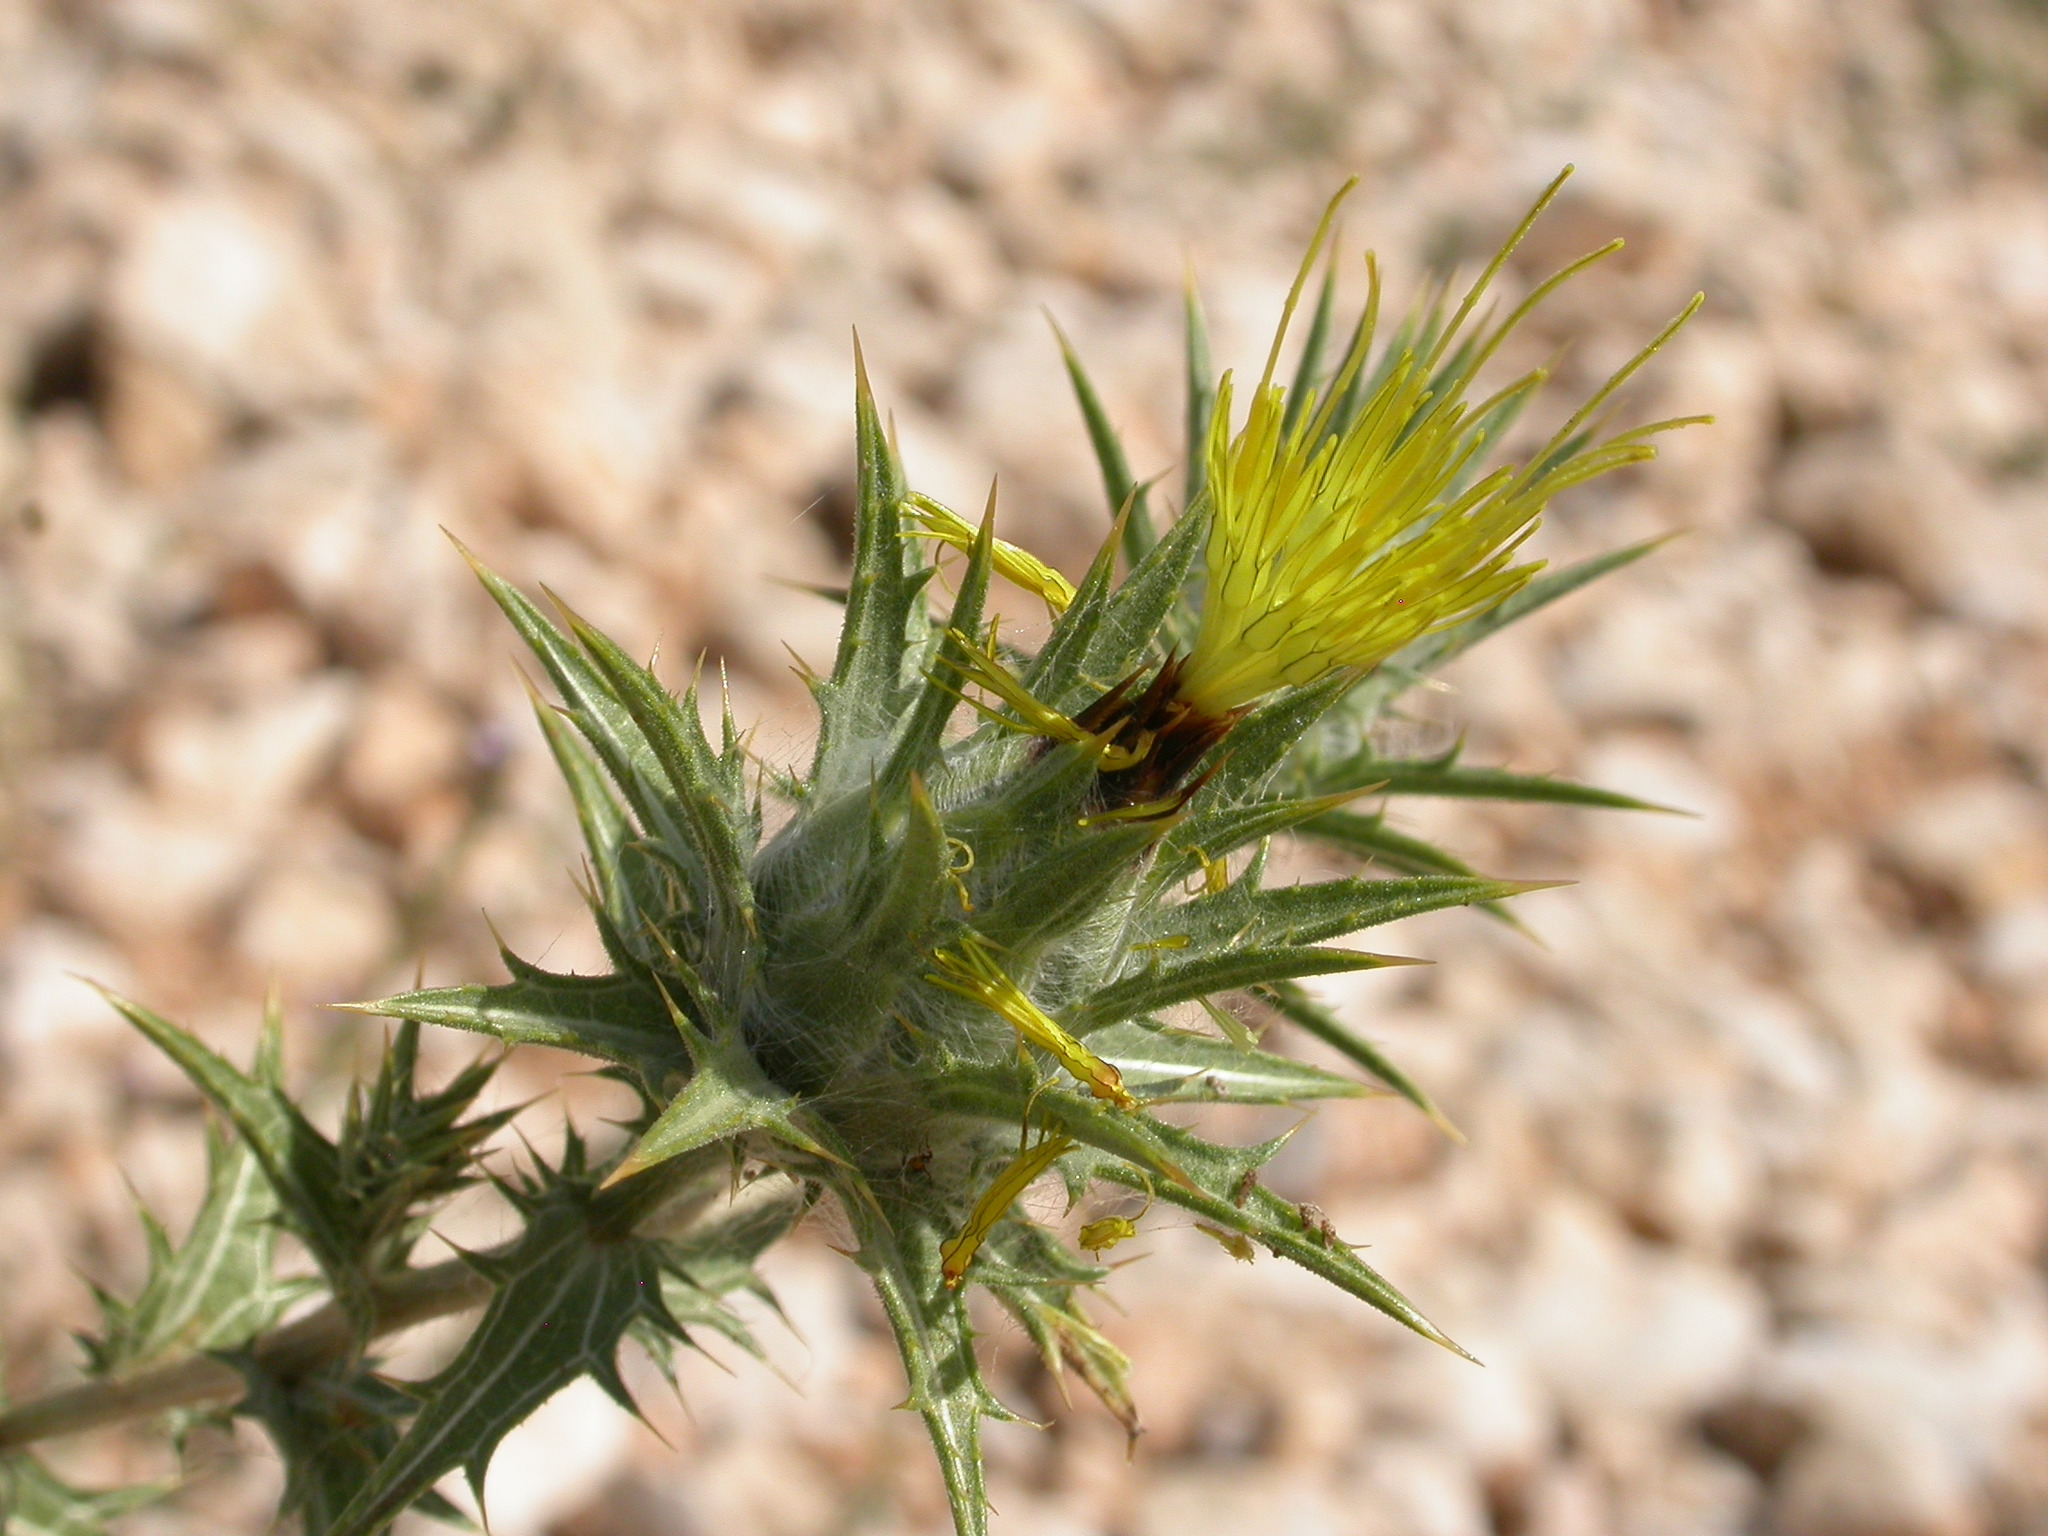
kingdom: Plantae
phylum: Tracheophyta
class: Magnoliopsida
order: Asterales
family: Asteraceae
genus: Carthamus
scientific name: Carthamus lanatus
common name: Downy safflower
